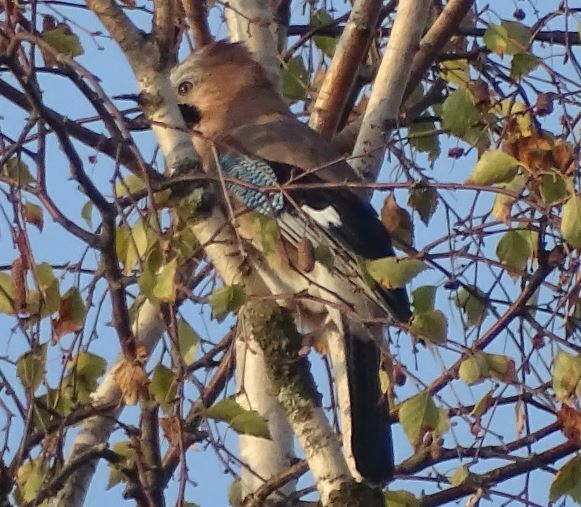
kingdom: Animalia
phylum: Chordata
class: Aves
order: Passeriformes
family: Corvidae
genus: Garrulus
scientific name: Garrulus glandarius
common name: Eurasian jay
